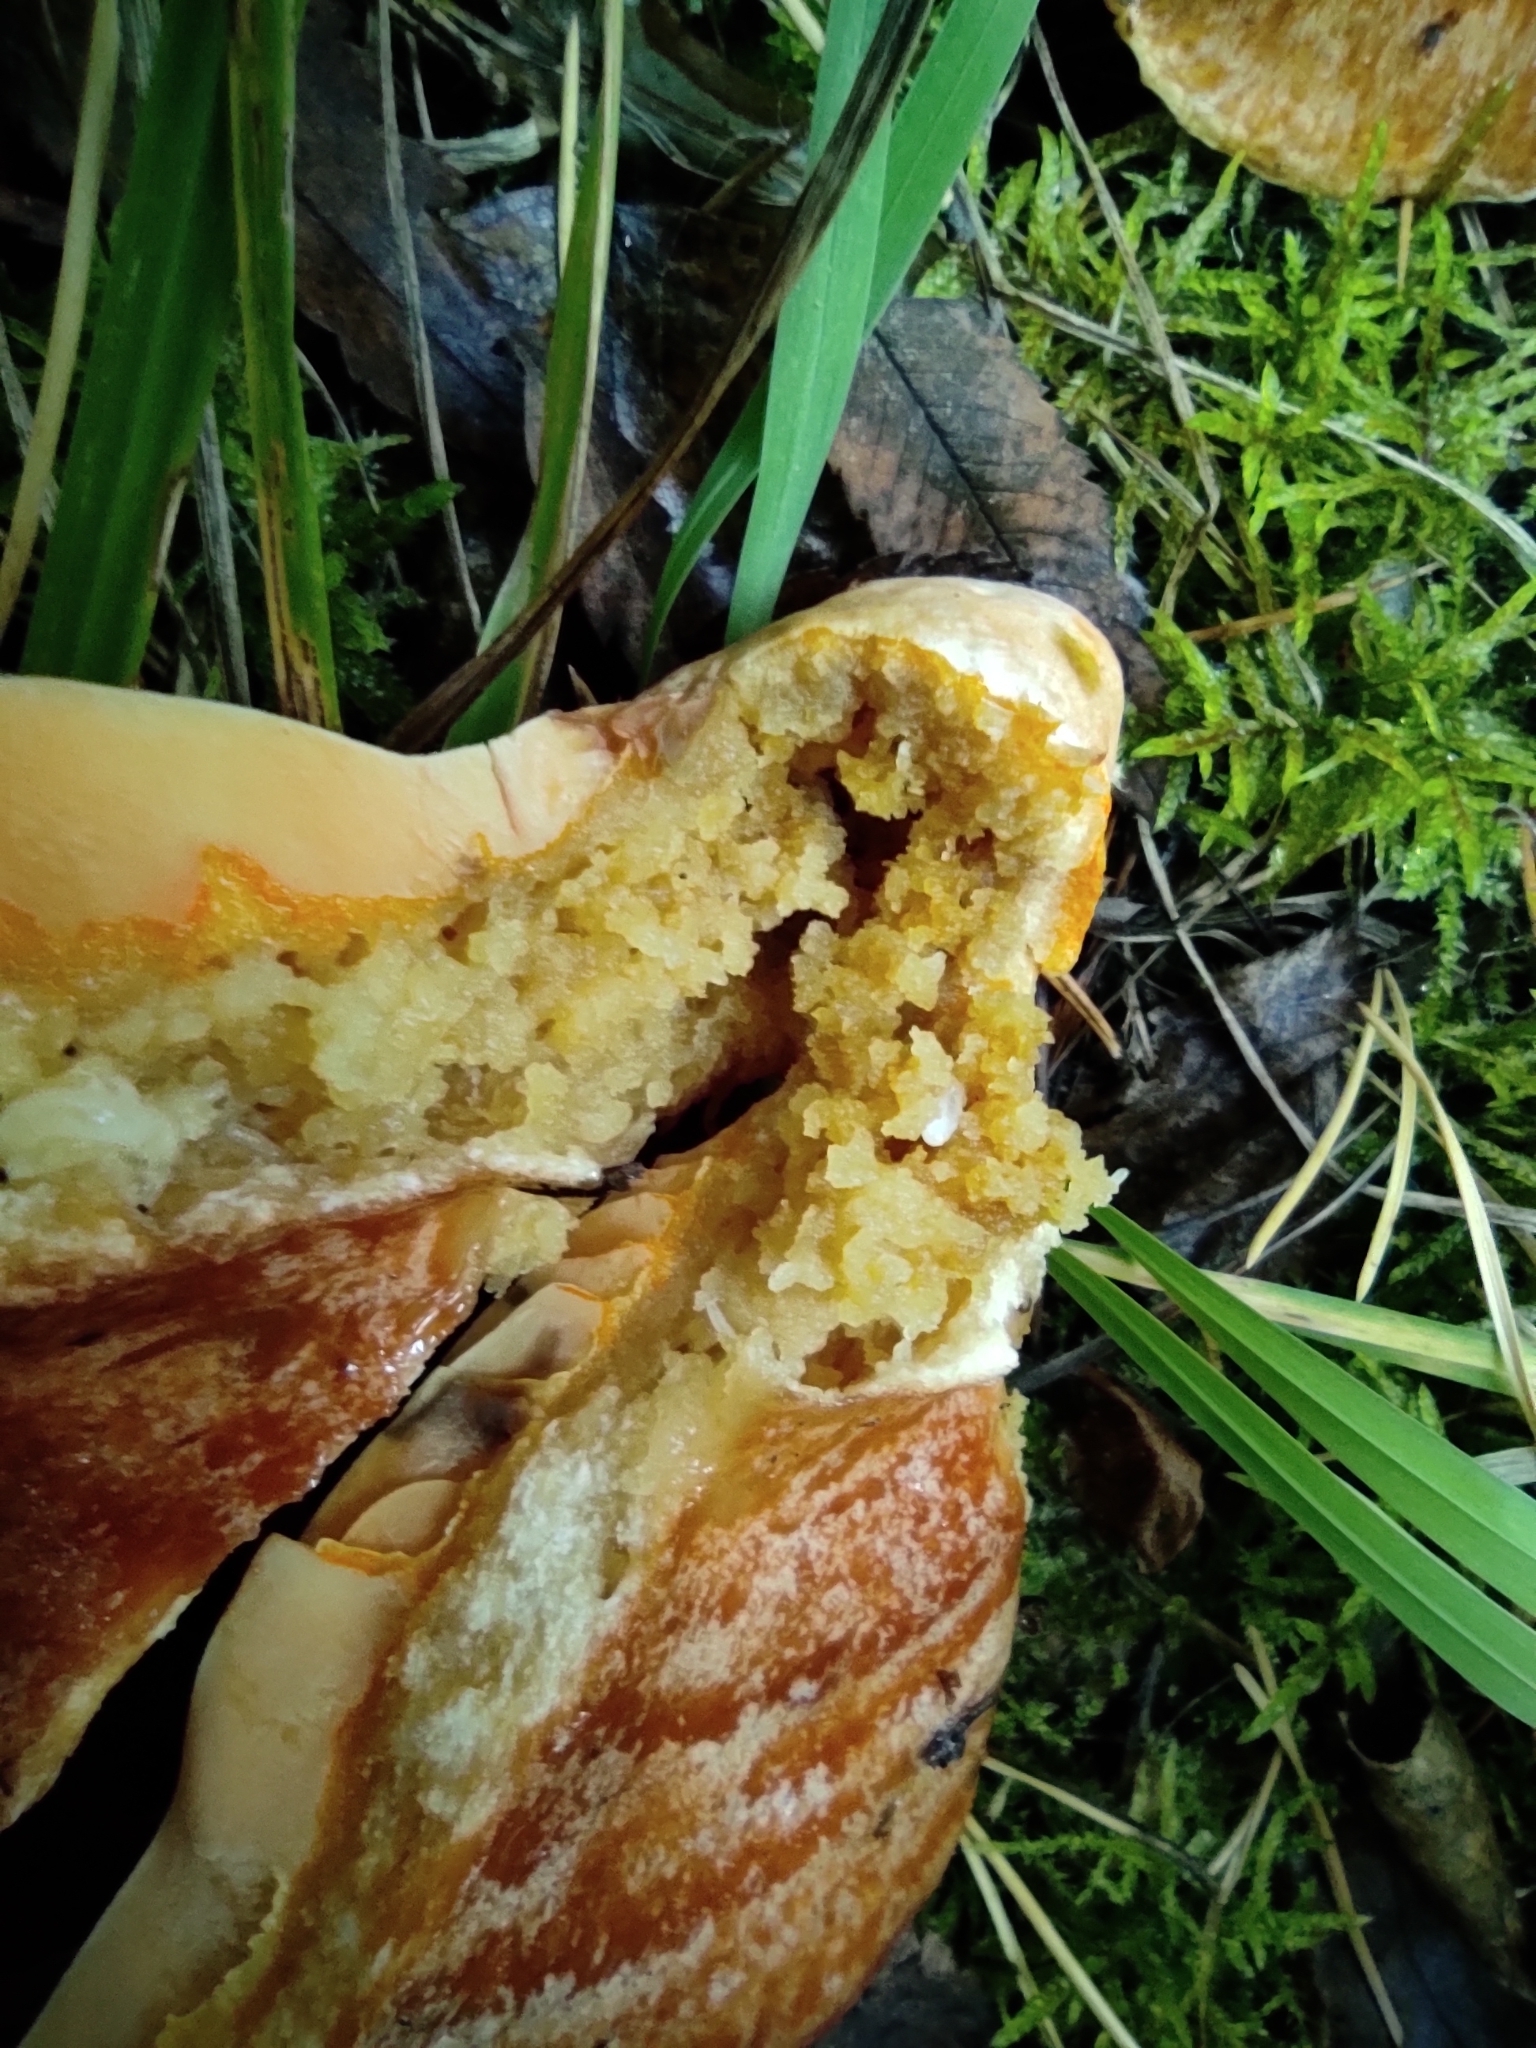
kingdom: Fungi
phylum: Basidiomycota
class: Agaricomycetes
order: Russulales
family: Russulaceae
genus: Lactarius
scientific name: Lactarius deliciosus
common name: Saffron milk-cap
